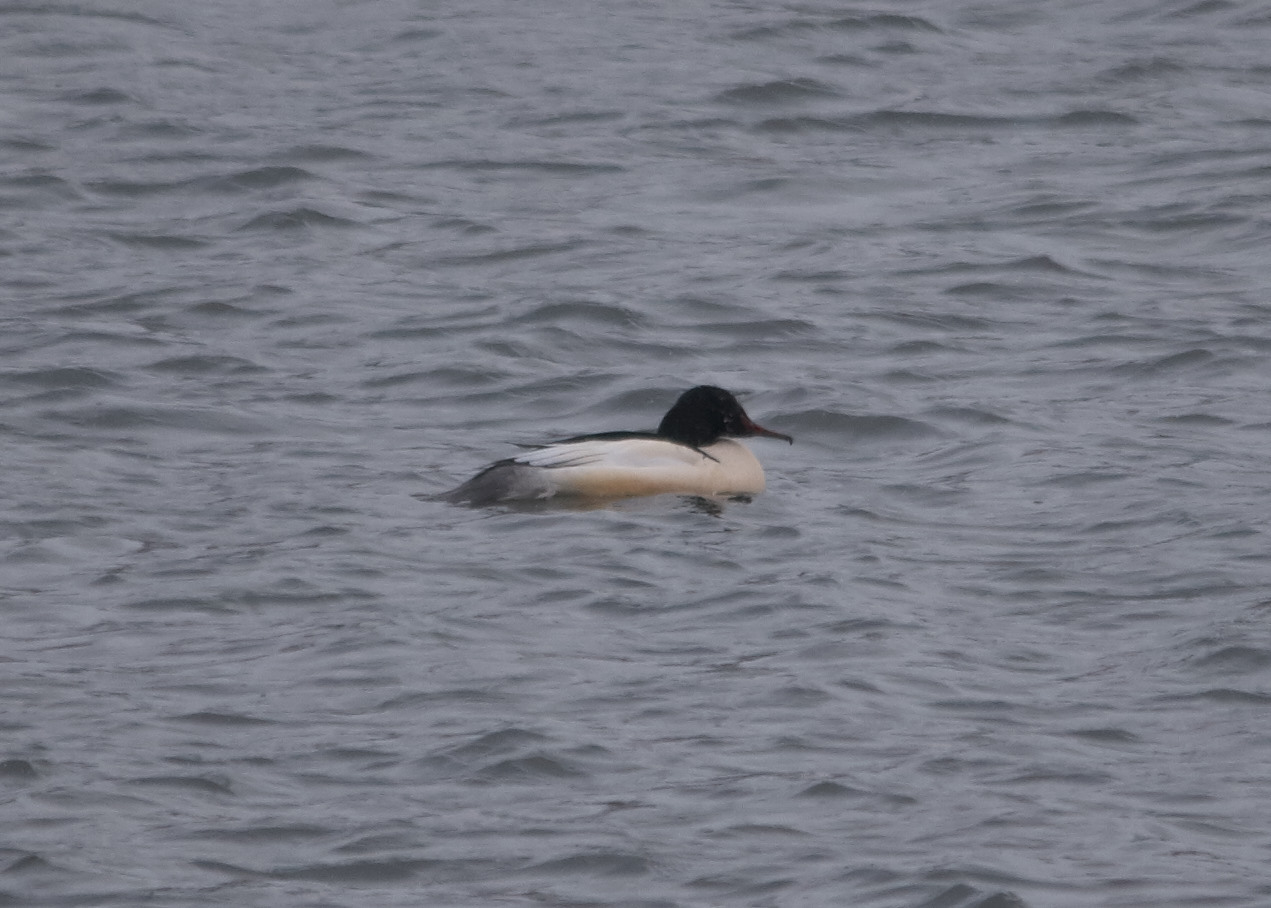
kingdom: Animalia
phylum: Chordata
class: Aves
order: Anseriformes
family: Anatidae
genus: Mergus
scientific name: Mergus merganser
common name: Common merganser
